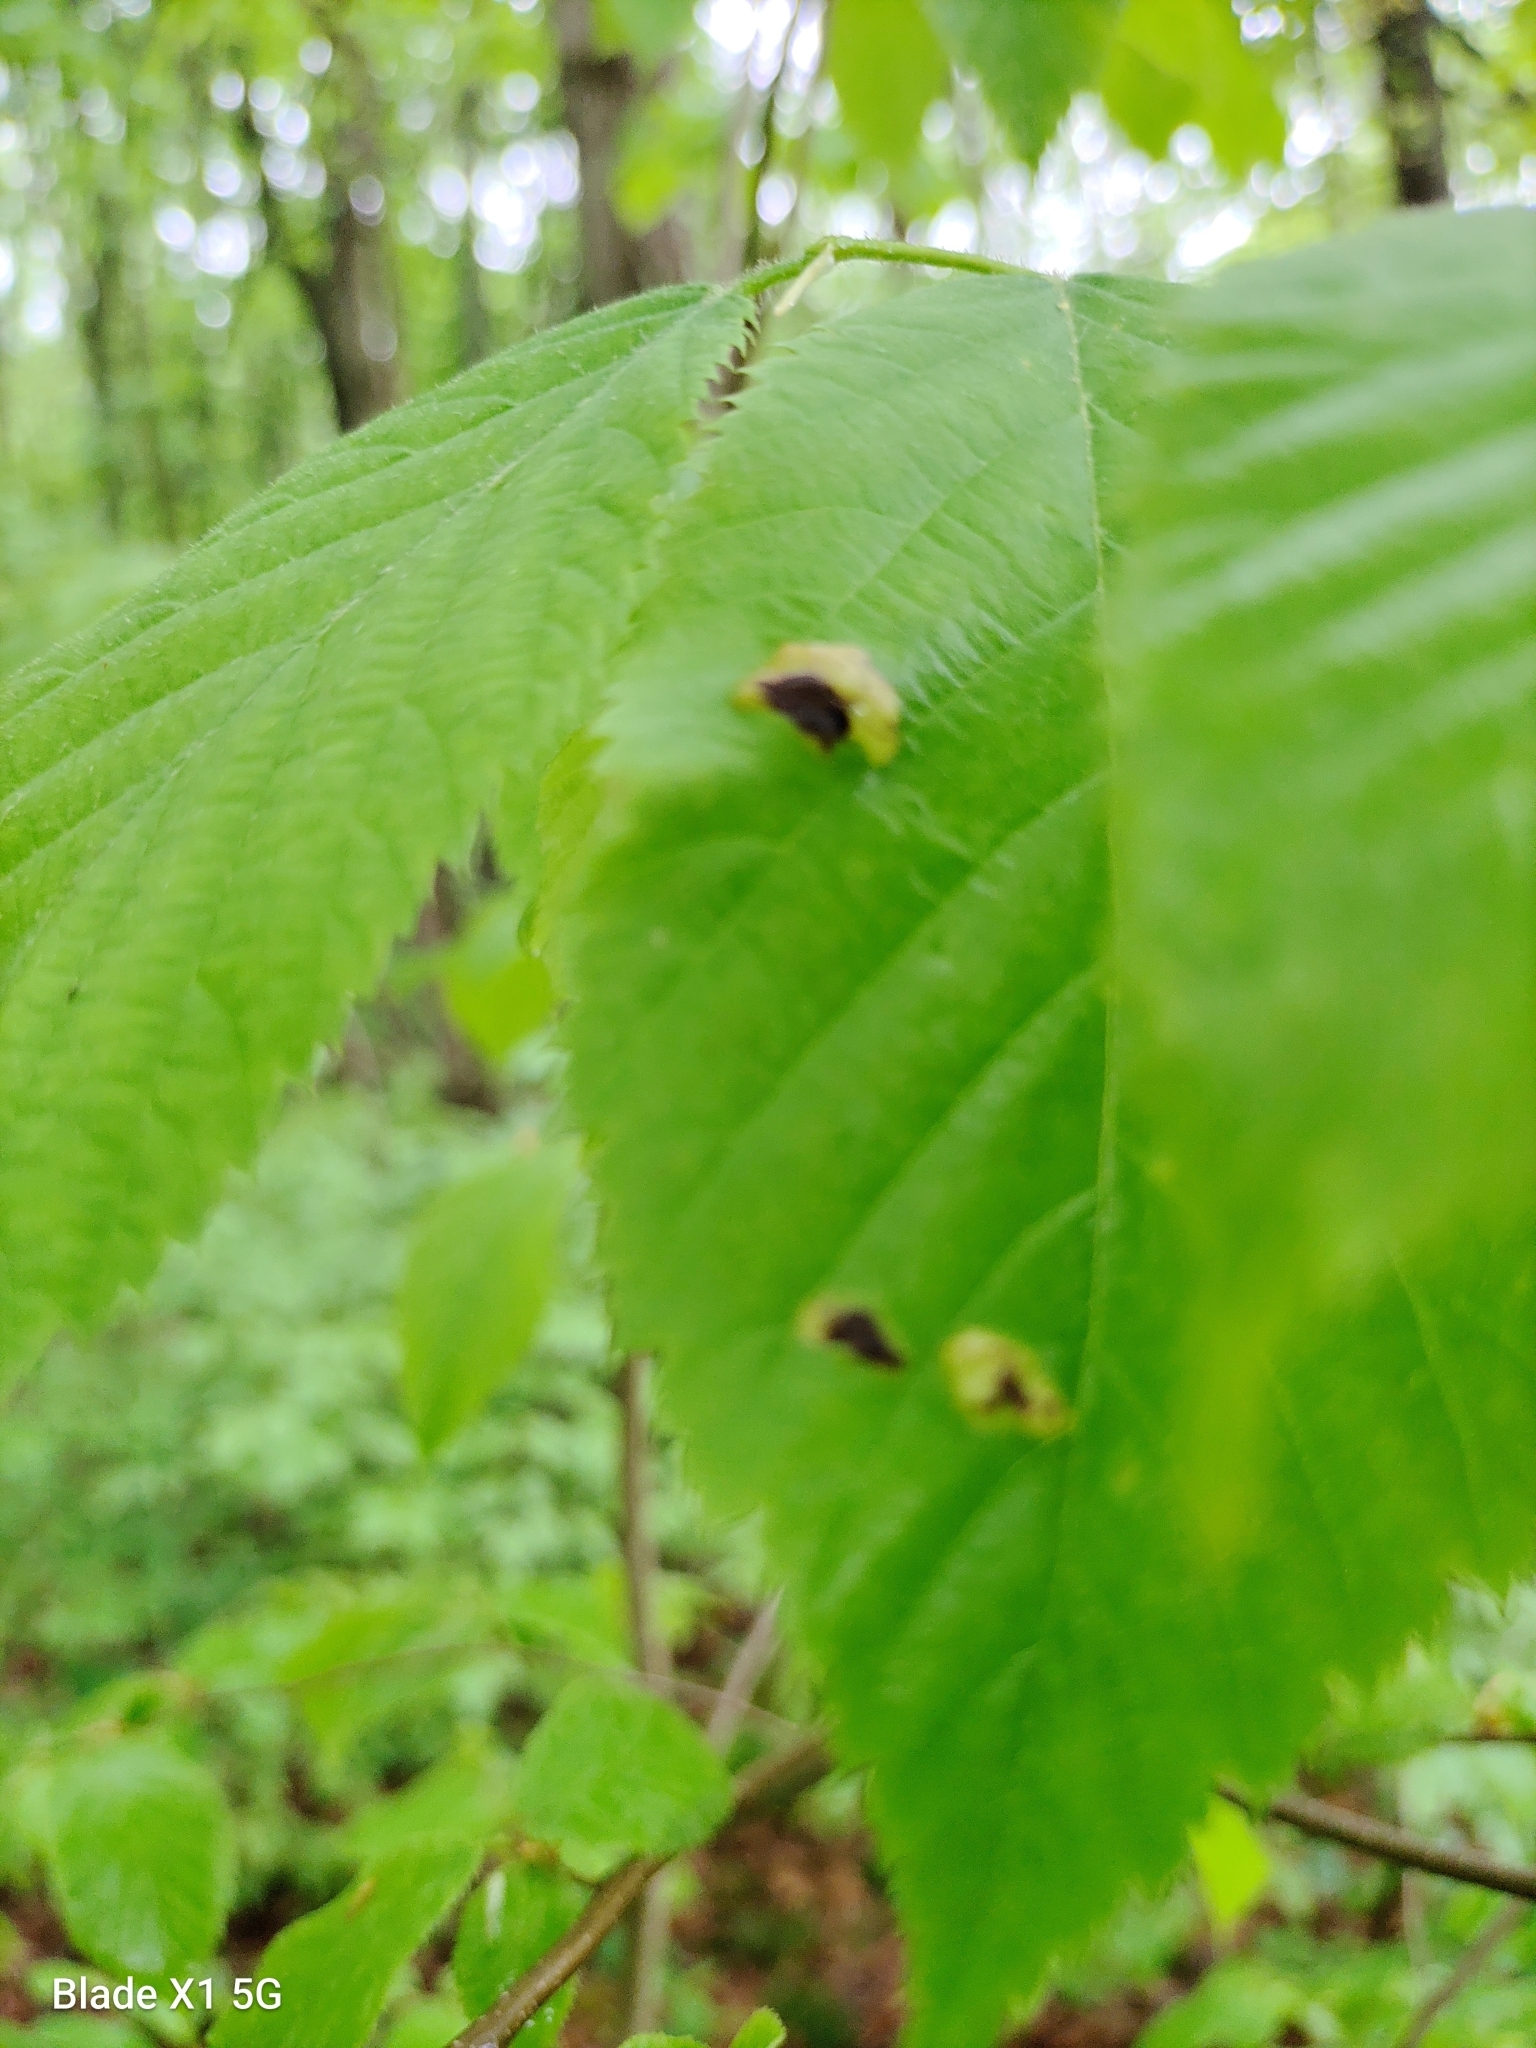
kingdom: Fungi
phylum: Ascomycota
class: Taphrinomycetes
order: Taphrinales
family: Taphrinaceae
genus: Taphrina
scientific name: Taphrina ulmi
